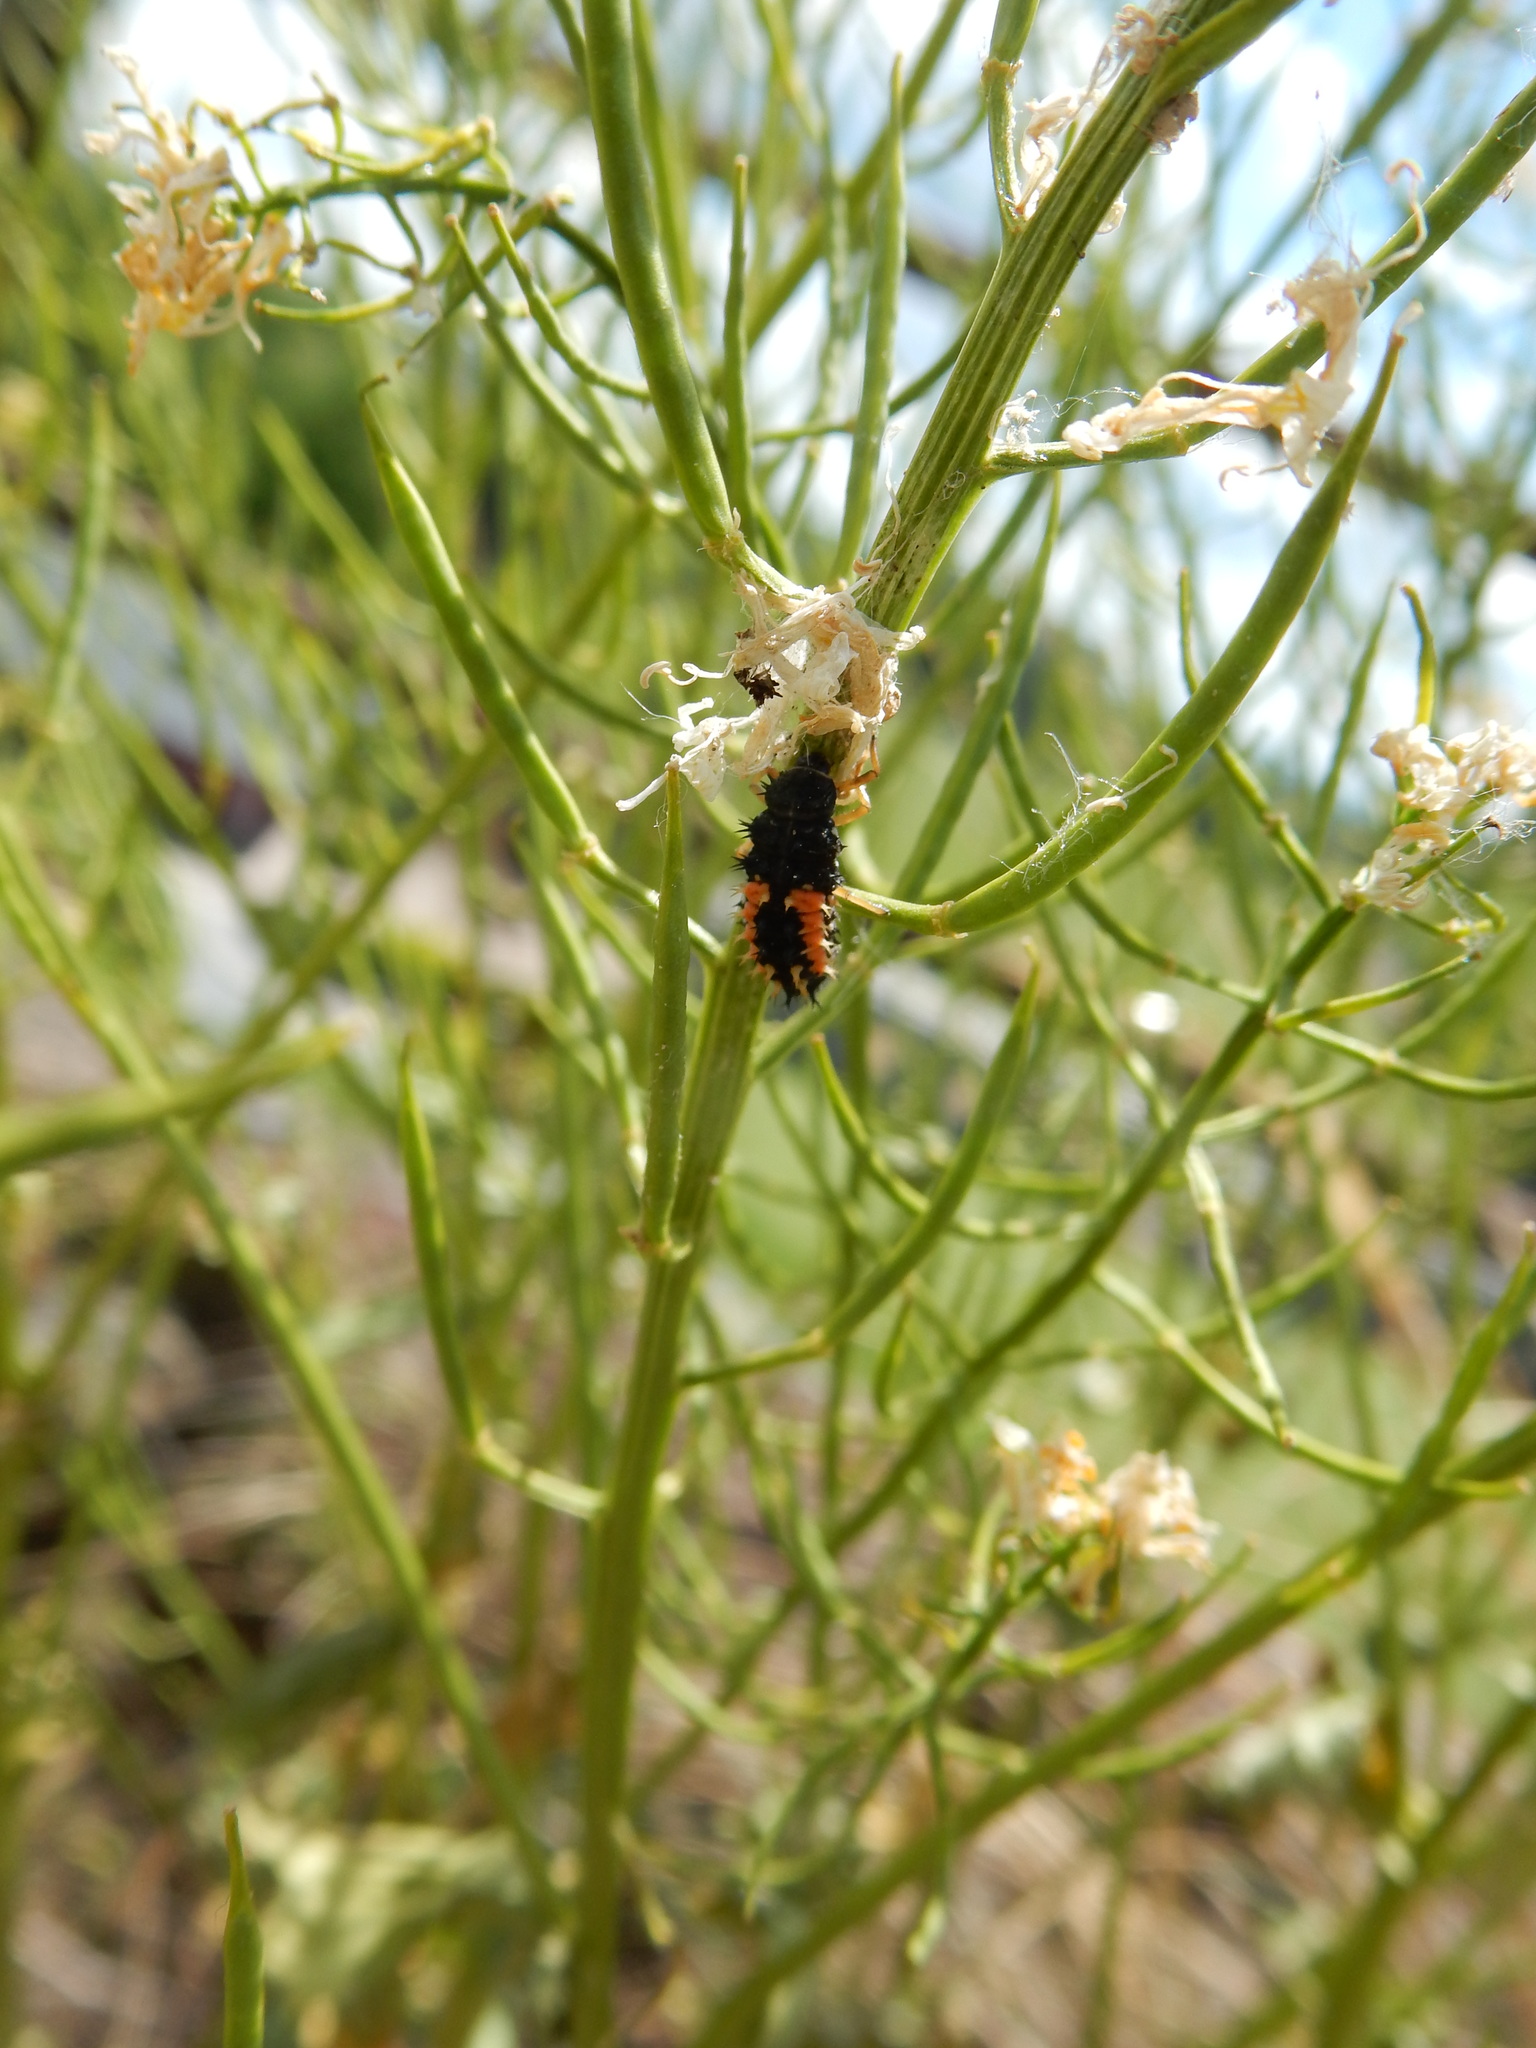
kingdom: Animalia
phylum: Arthropoda
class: Insecta
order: Coleoptera
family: Coccinellidae
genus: Harmonia
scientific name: Harmonia axyridis
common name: Harlequin ladybird
